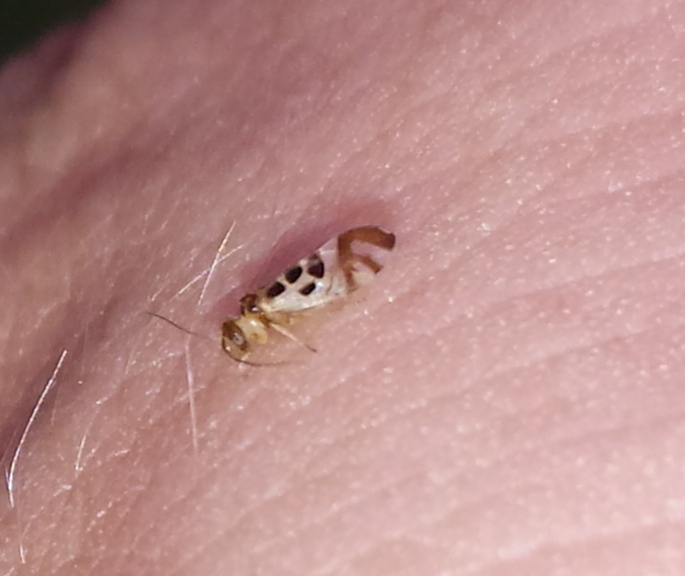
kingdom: Animalia
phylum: Arthropoda
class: Insecta
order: Psocodea
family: Stenopsocidae
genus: Graphopsocus
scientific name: Graphopsocus cruciatus
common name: Lizard bark louse
